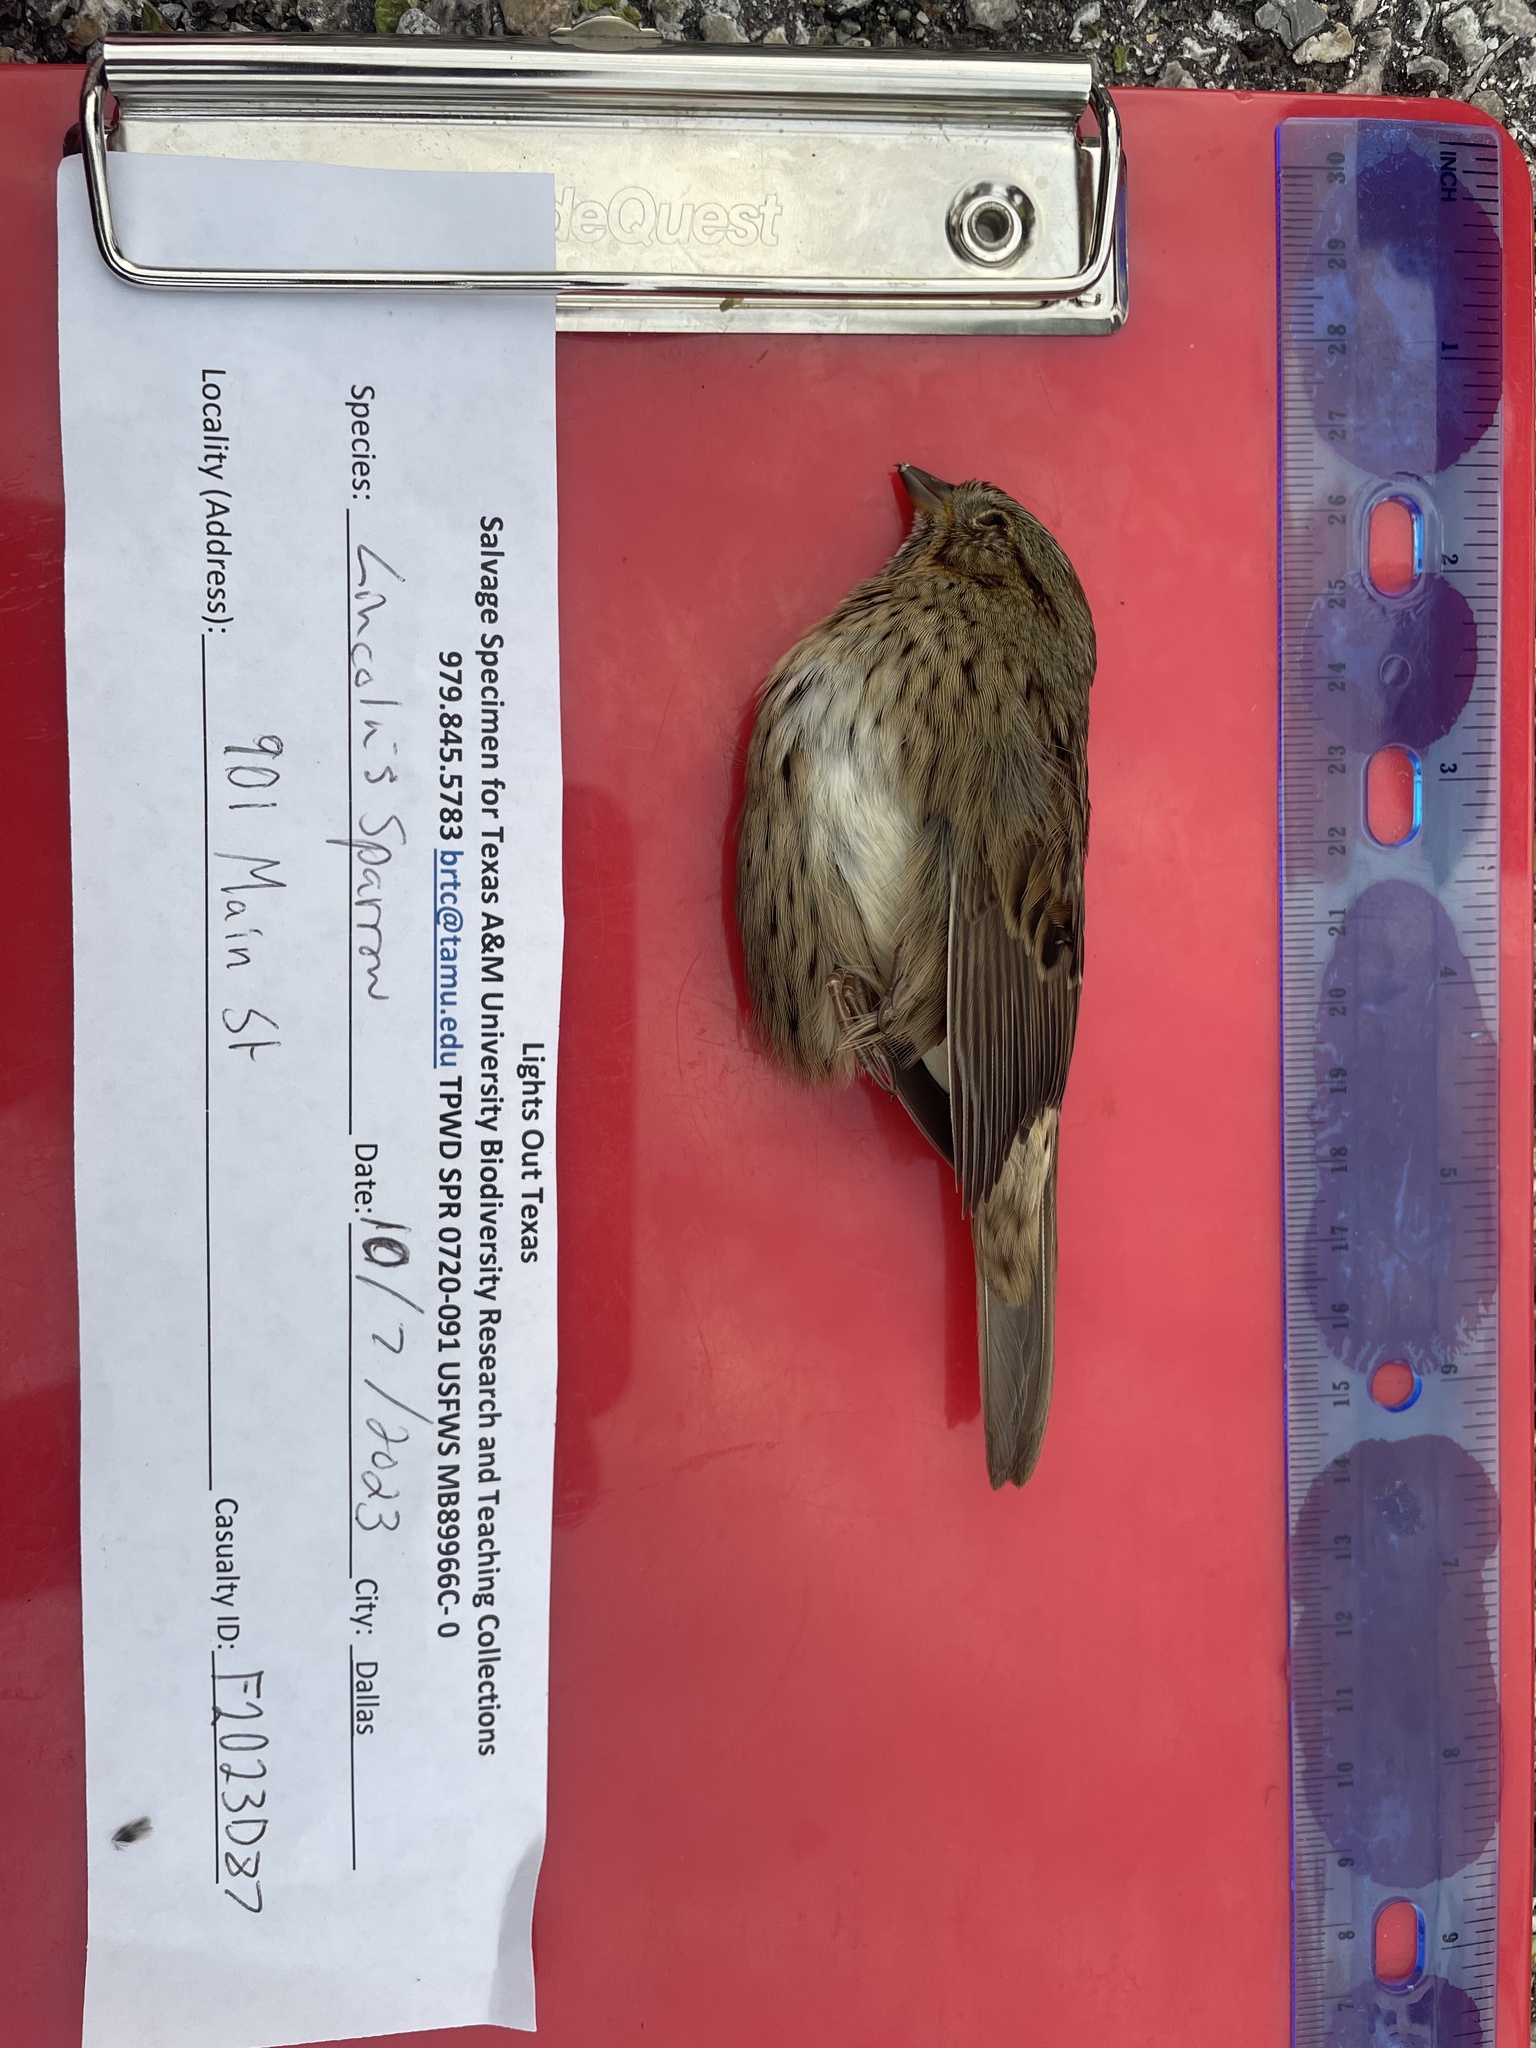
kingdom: Animalia
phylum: Chordata
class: Aves
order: Passeriformes
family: Passerellidae
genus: Melospiza
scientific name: Melospiza lincolnii
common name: Lincoln's sparrow
